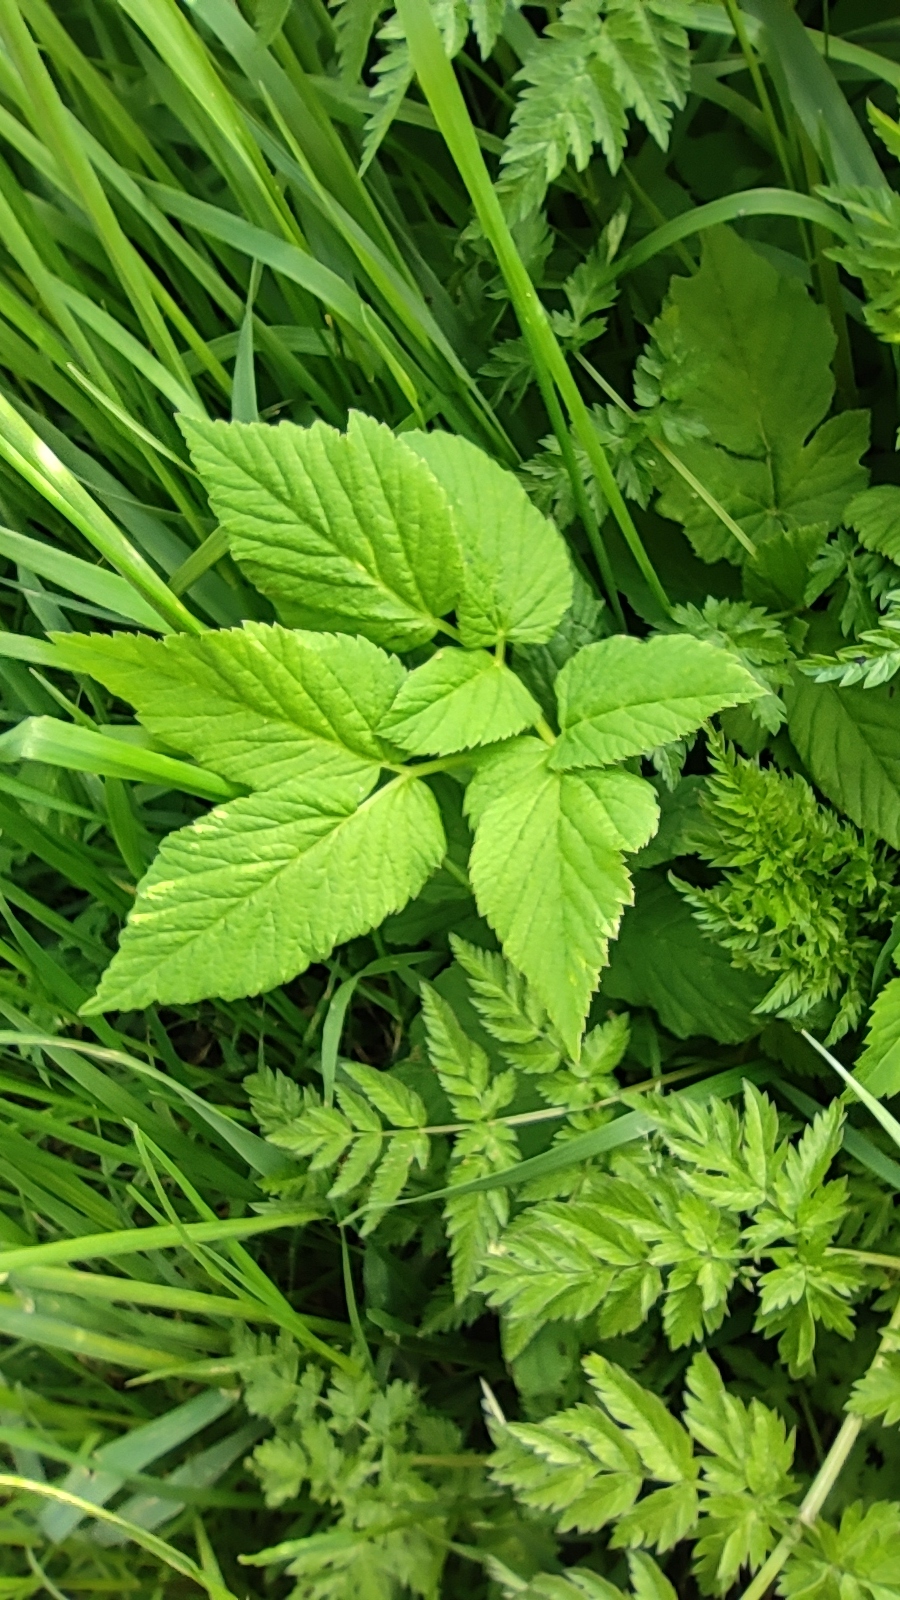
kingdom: Plantae
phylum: Tracheophyta
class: Magnoliopsida
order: Apiales
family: Apiaceae
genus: Aegopodium
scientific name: Aegopodium podagraria
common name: Ground-elder
